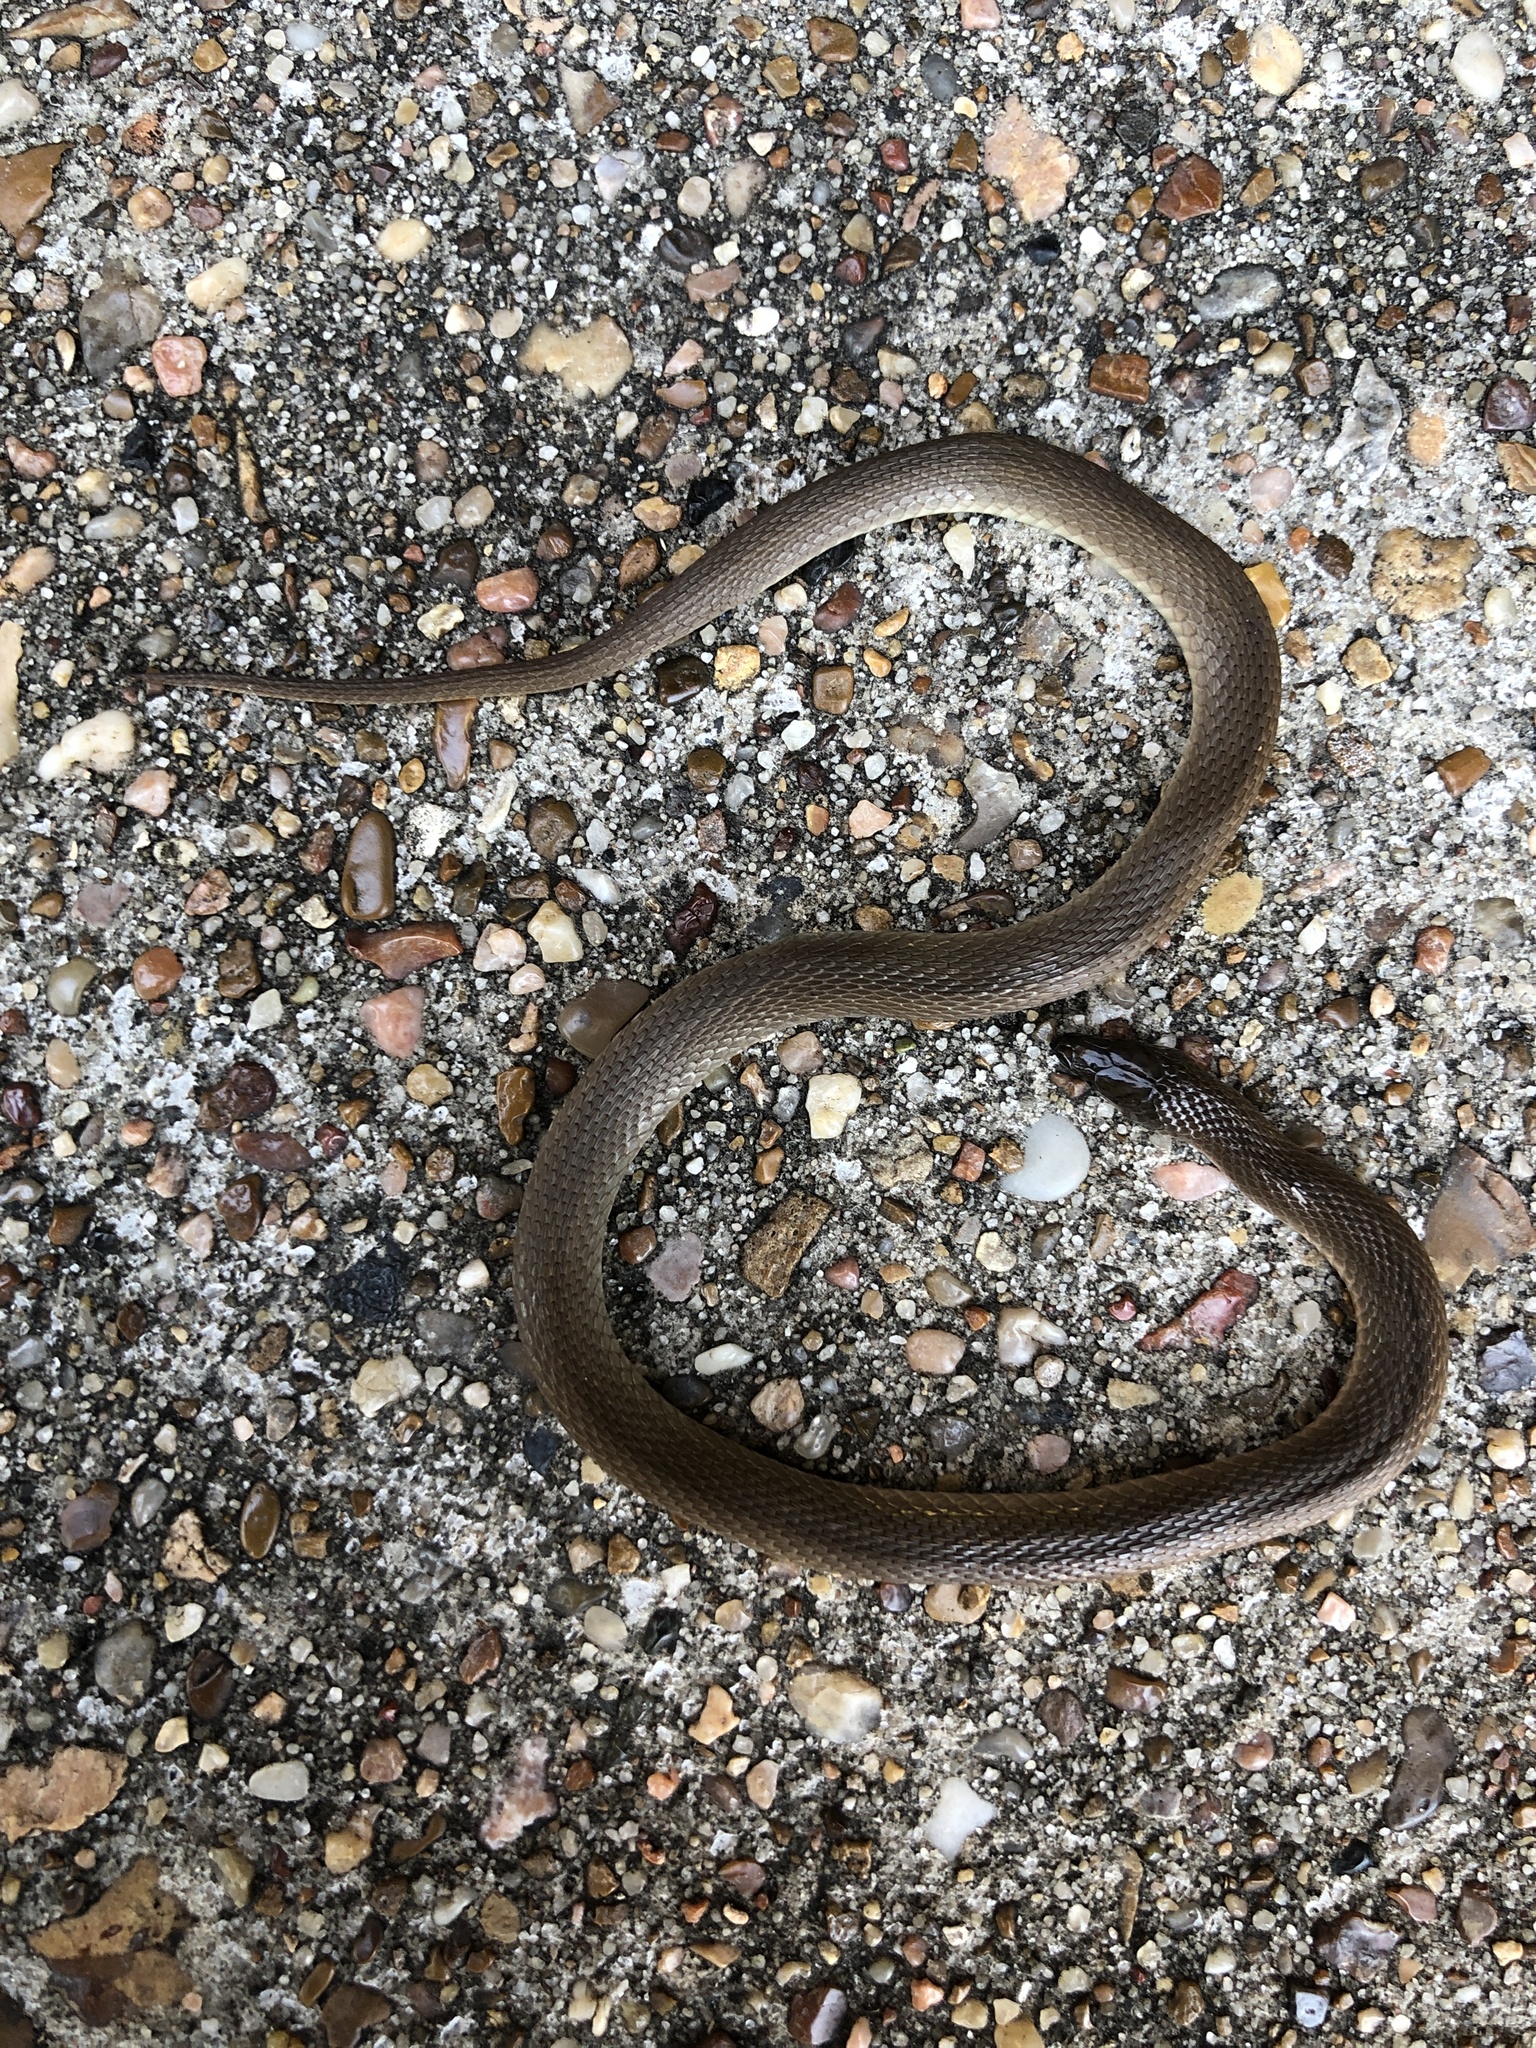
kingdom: Animalia
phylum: Chordata
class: Squamata
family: Colubridae
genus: Haldea
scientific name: Haldea striatula
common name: Rough earth snake
